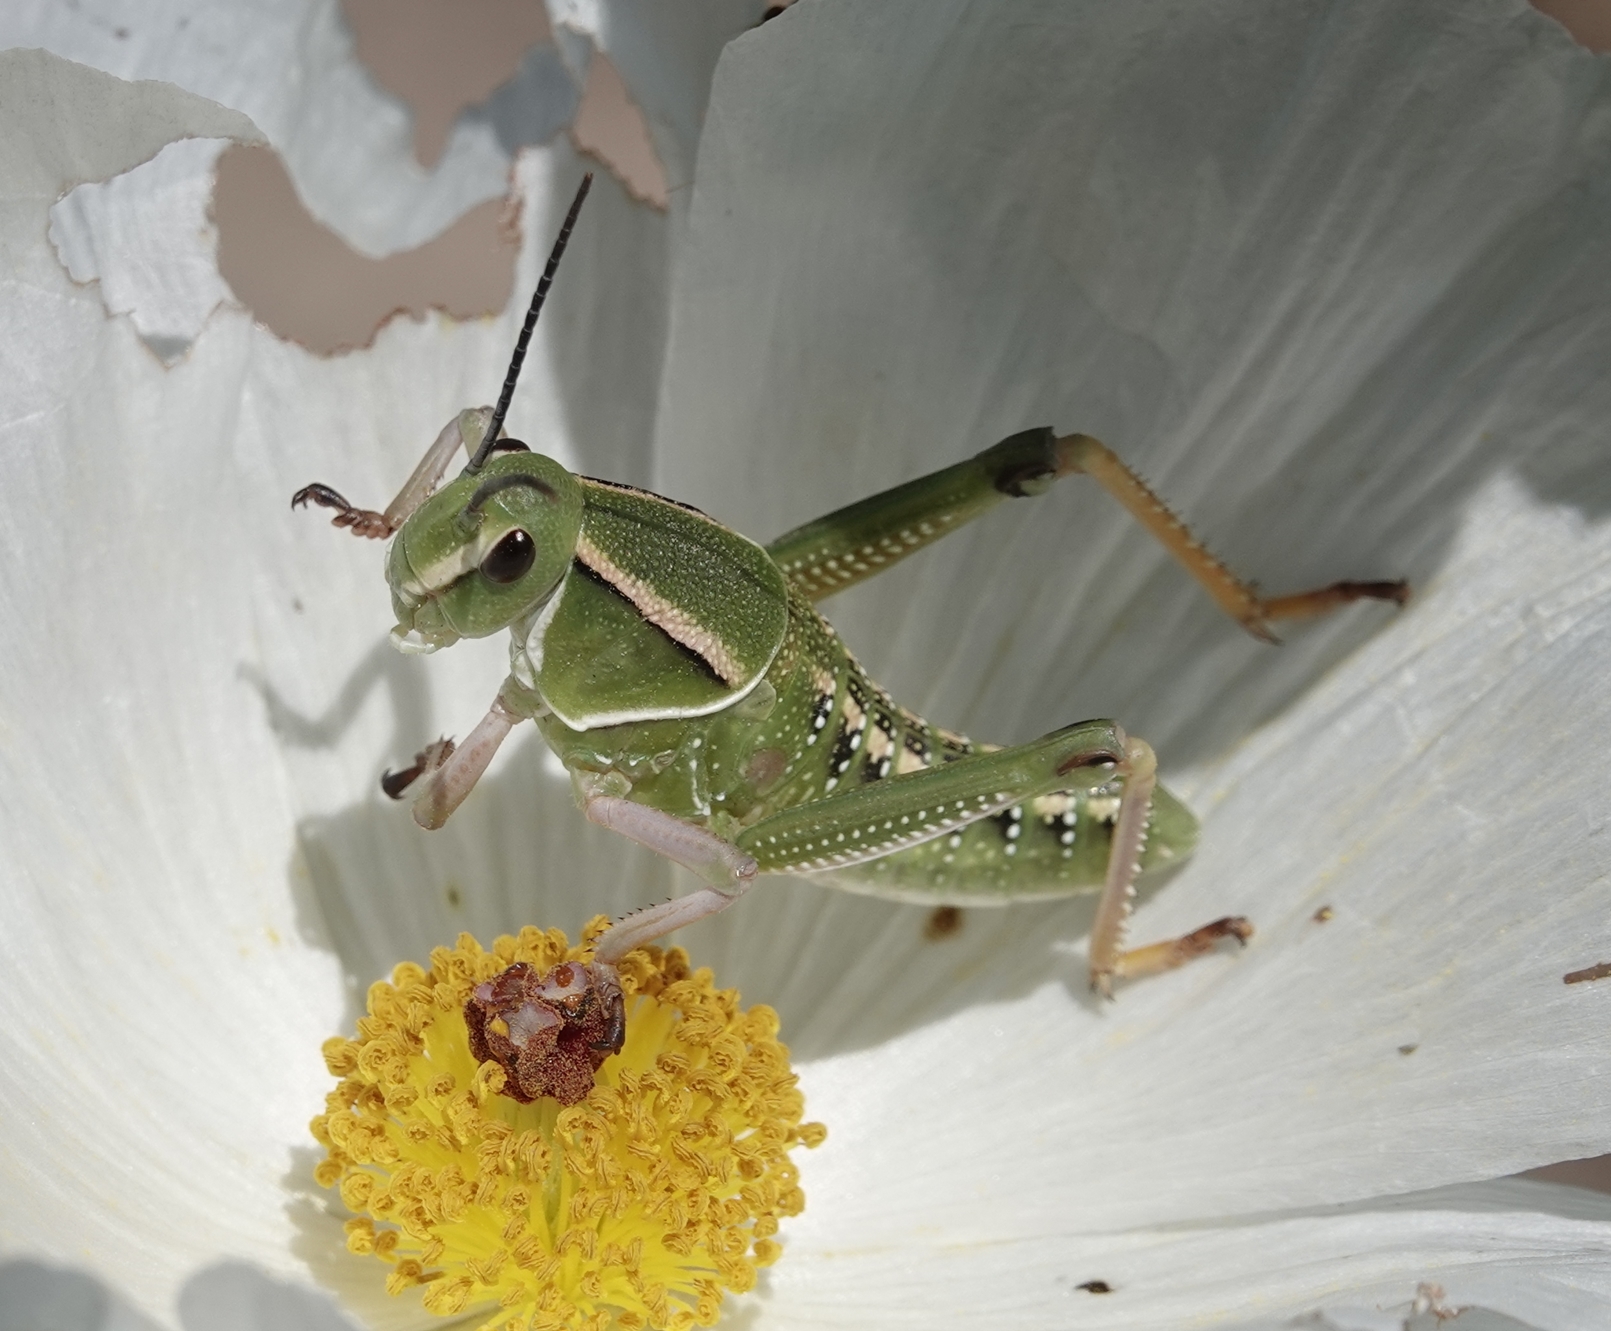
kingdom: Animalia
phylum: Arthropoda
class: Insecta
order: Orthoptera
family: Romaleidae
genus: Brachystola
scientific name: Brachystola magna
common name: Plains lubber grasshopper
